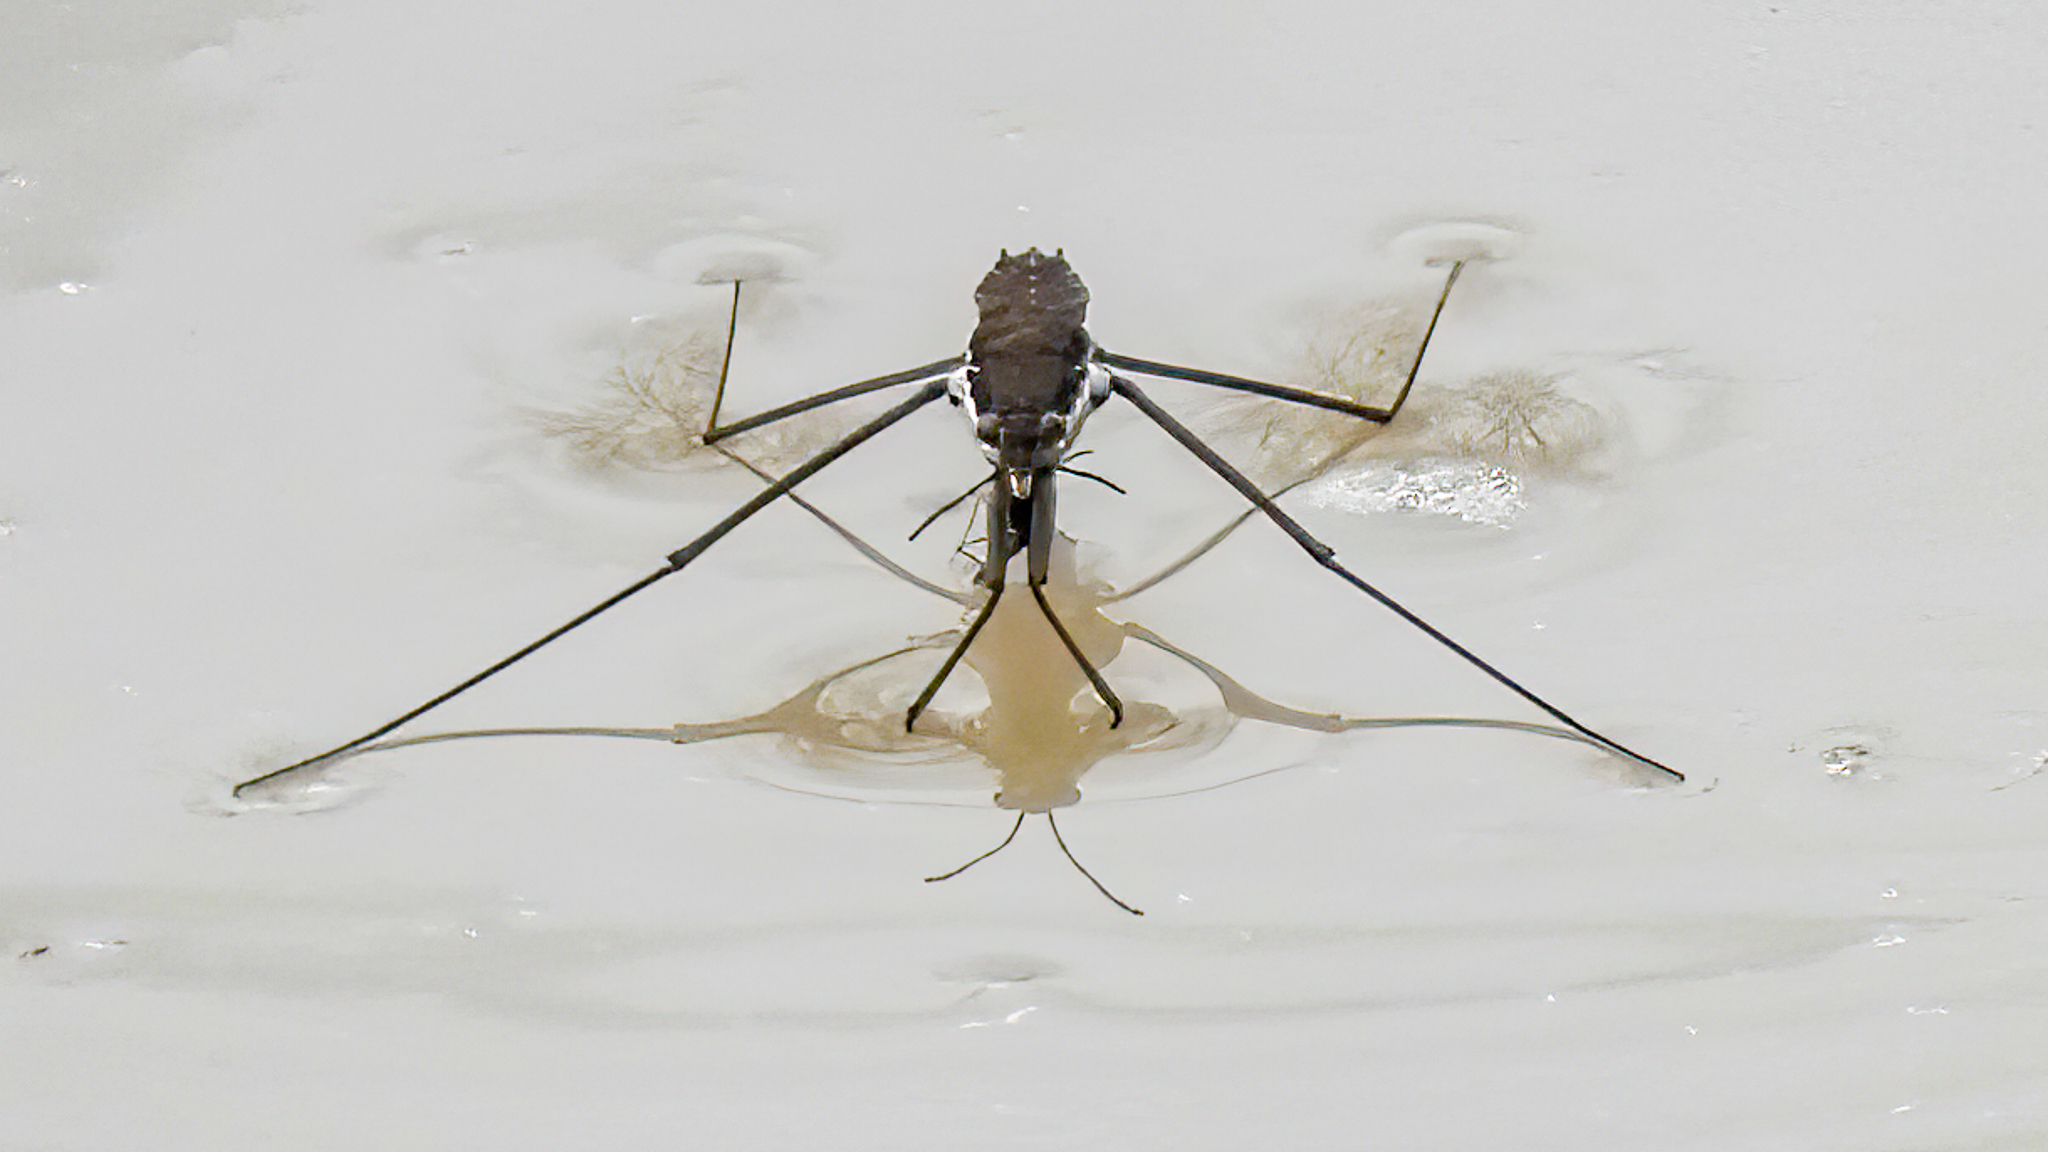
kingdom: Animalia
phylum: Arthropoda
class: Insecta
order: Hemiptera
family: Gerridae
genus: Aquarius
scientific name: Aquarius remigis
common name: Common water strider
